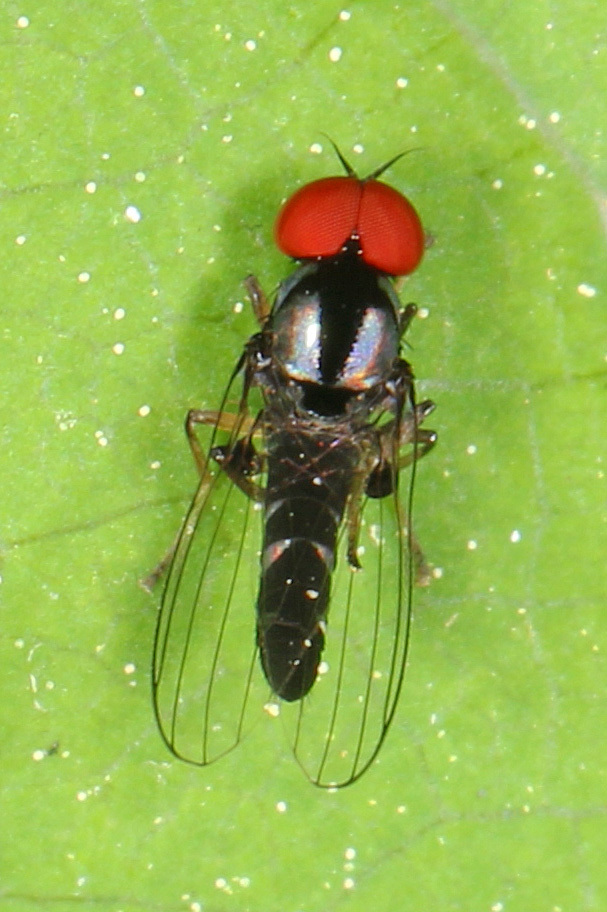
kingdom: Animalia
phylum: Arthropoda
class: Insecta
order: Diptera
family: Platypezidae
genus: Bertamyia
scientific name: Bertamyia notata
